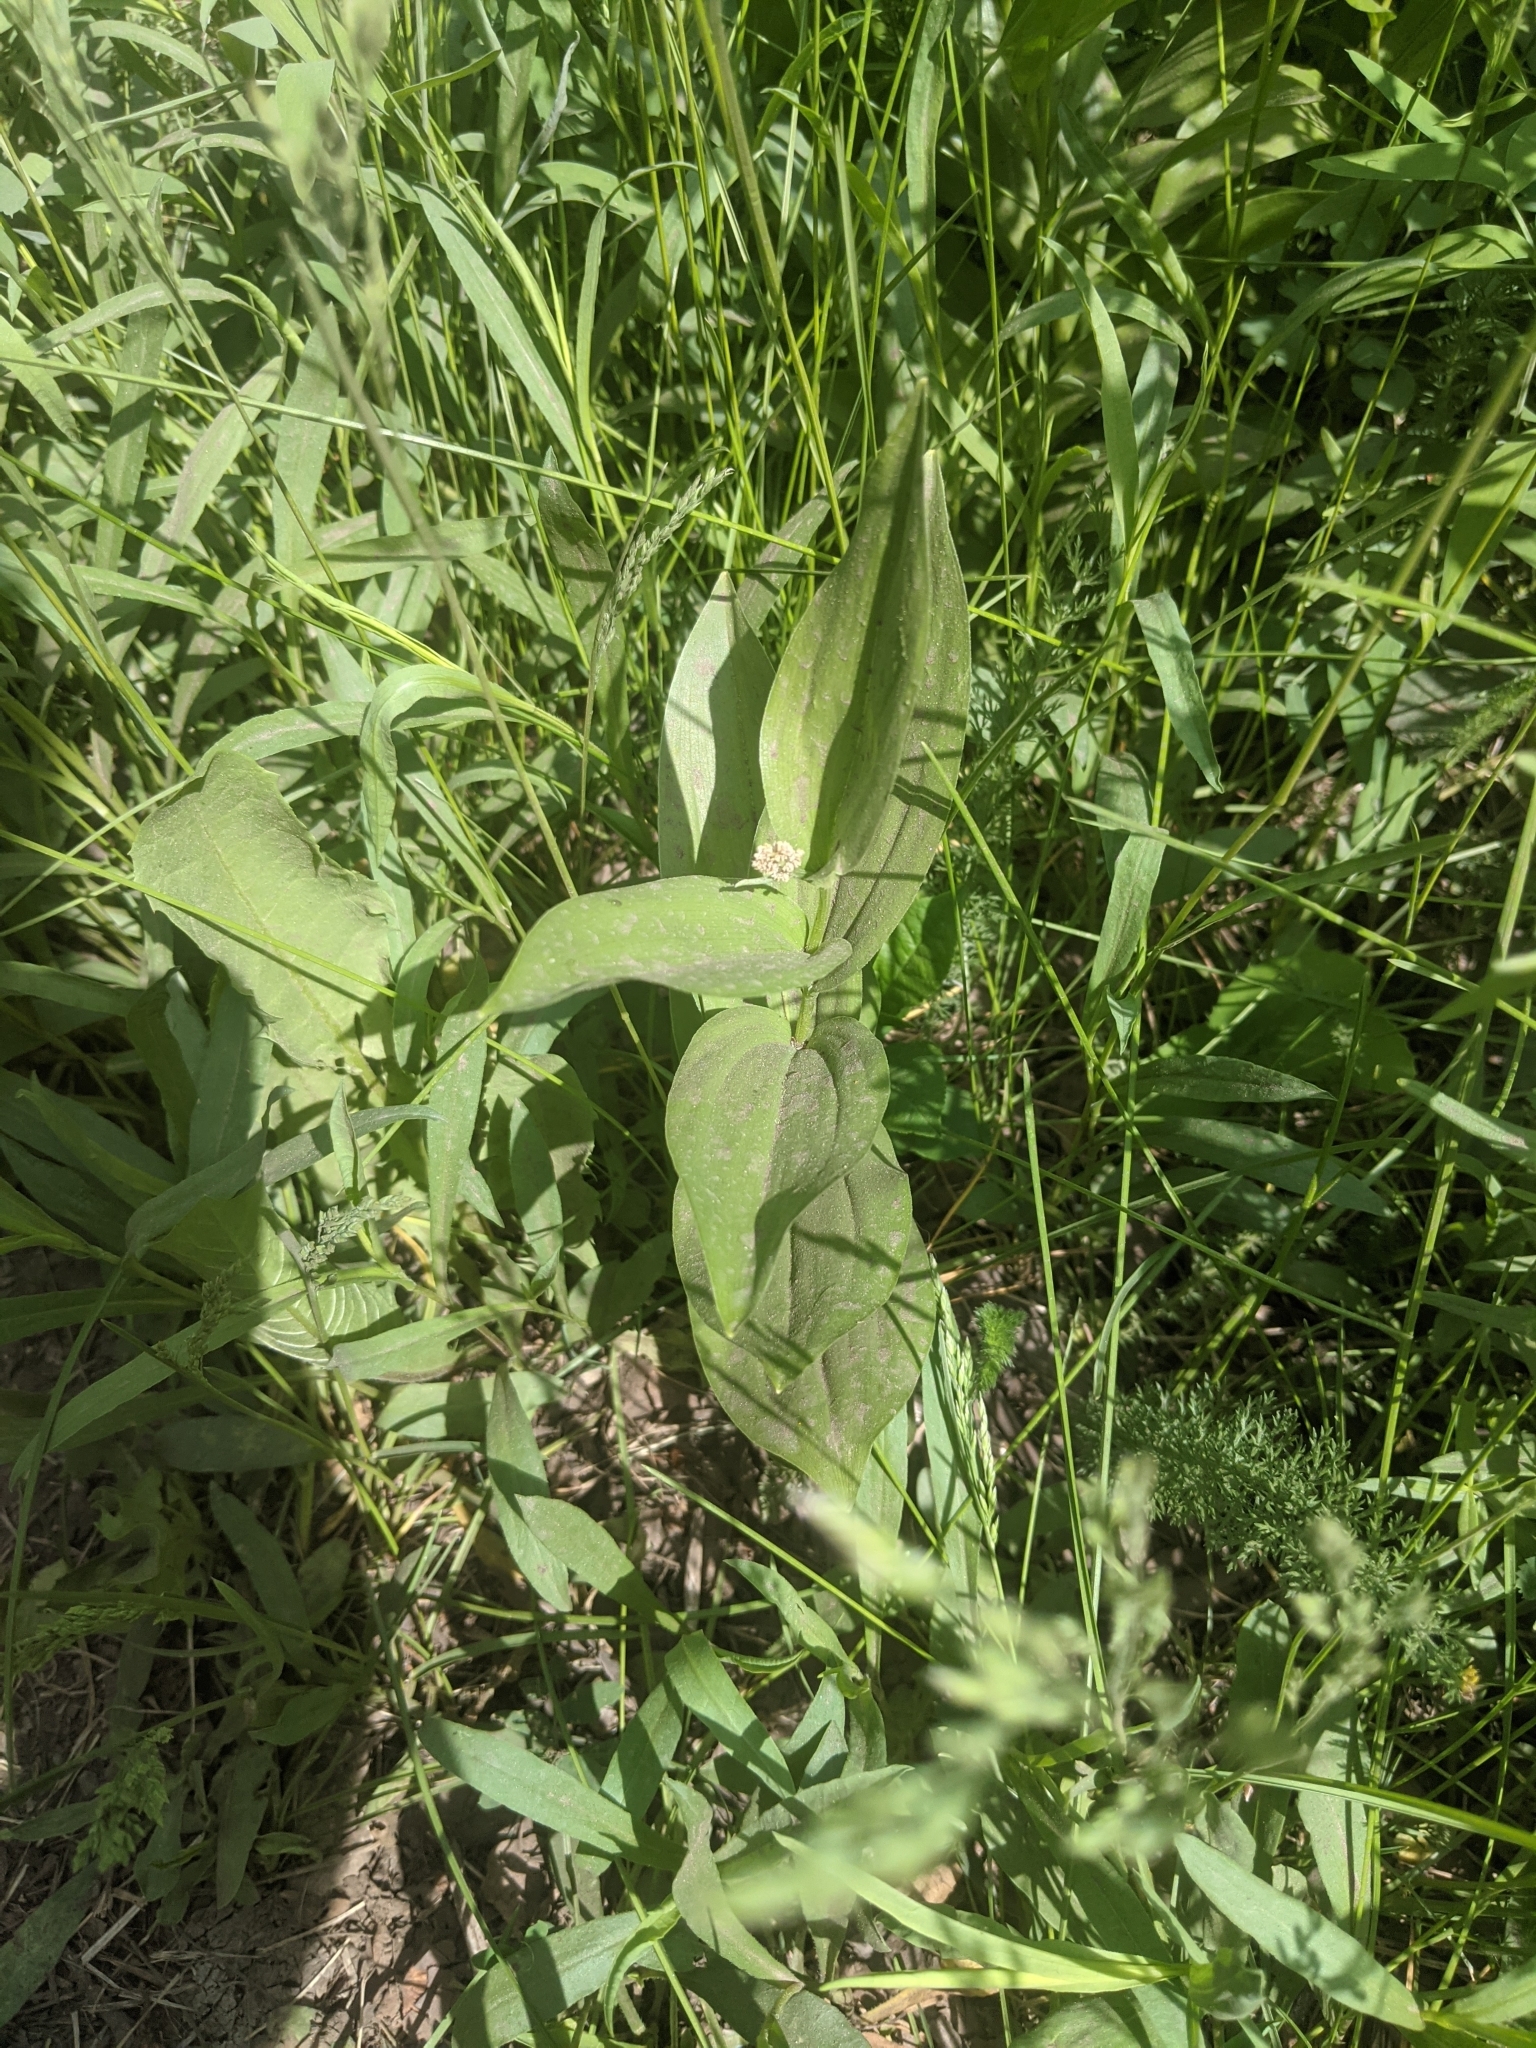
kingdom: Plantae
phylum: Tracheophyta
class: Liliopsida
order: Asparagales
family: Asparagaceae
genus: Maianthemum
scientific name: Maianthemum racemosum
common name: False spikenard
